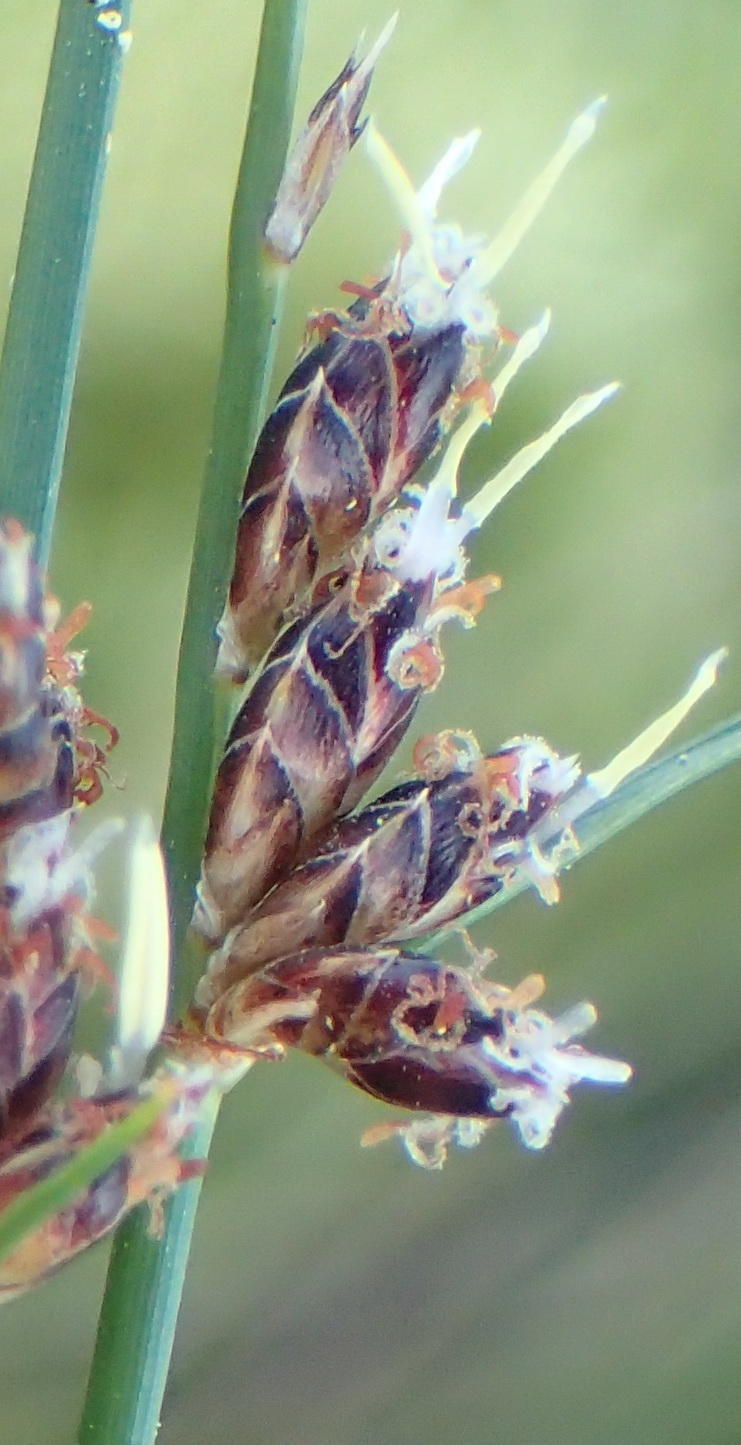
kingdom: Plantae
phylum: Tracheophyta
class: Liliopsida
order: Poales
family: Cyperaceae
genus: Ficinia
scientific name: Ficinia secunda
